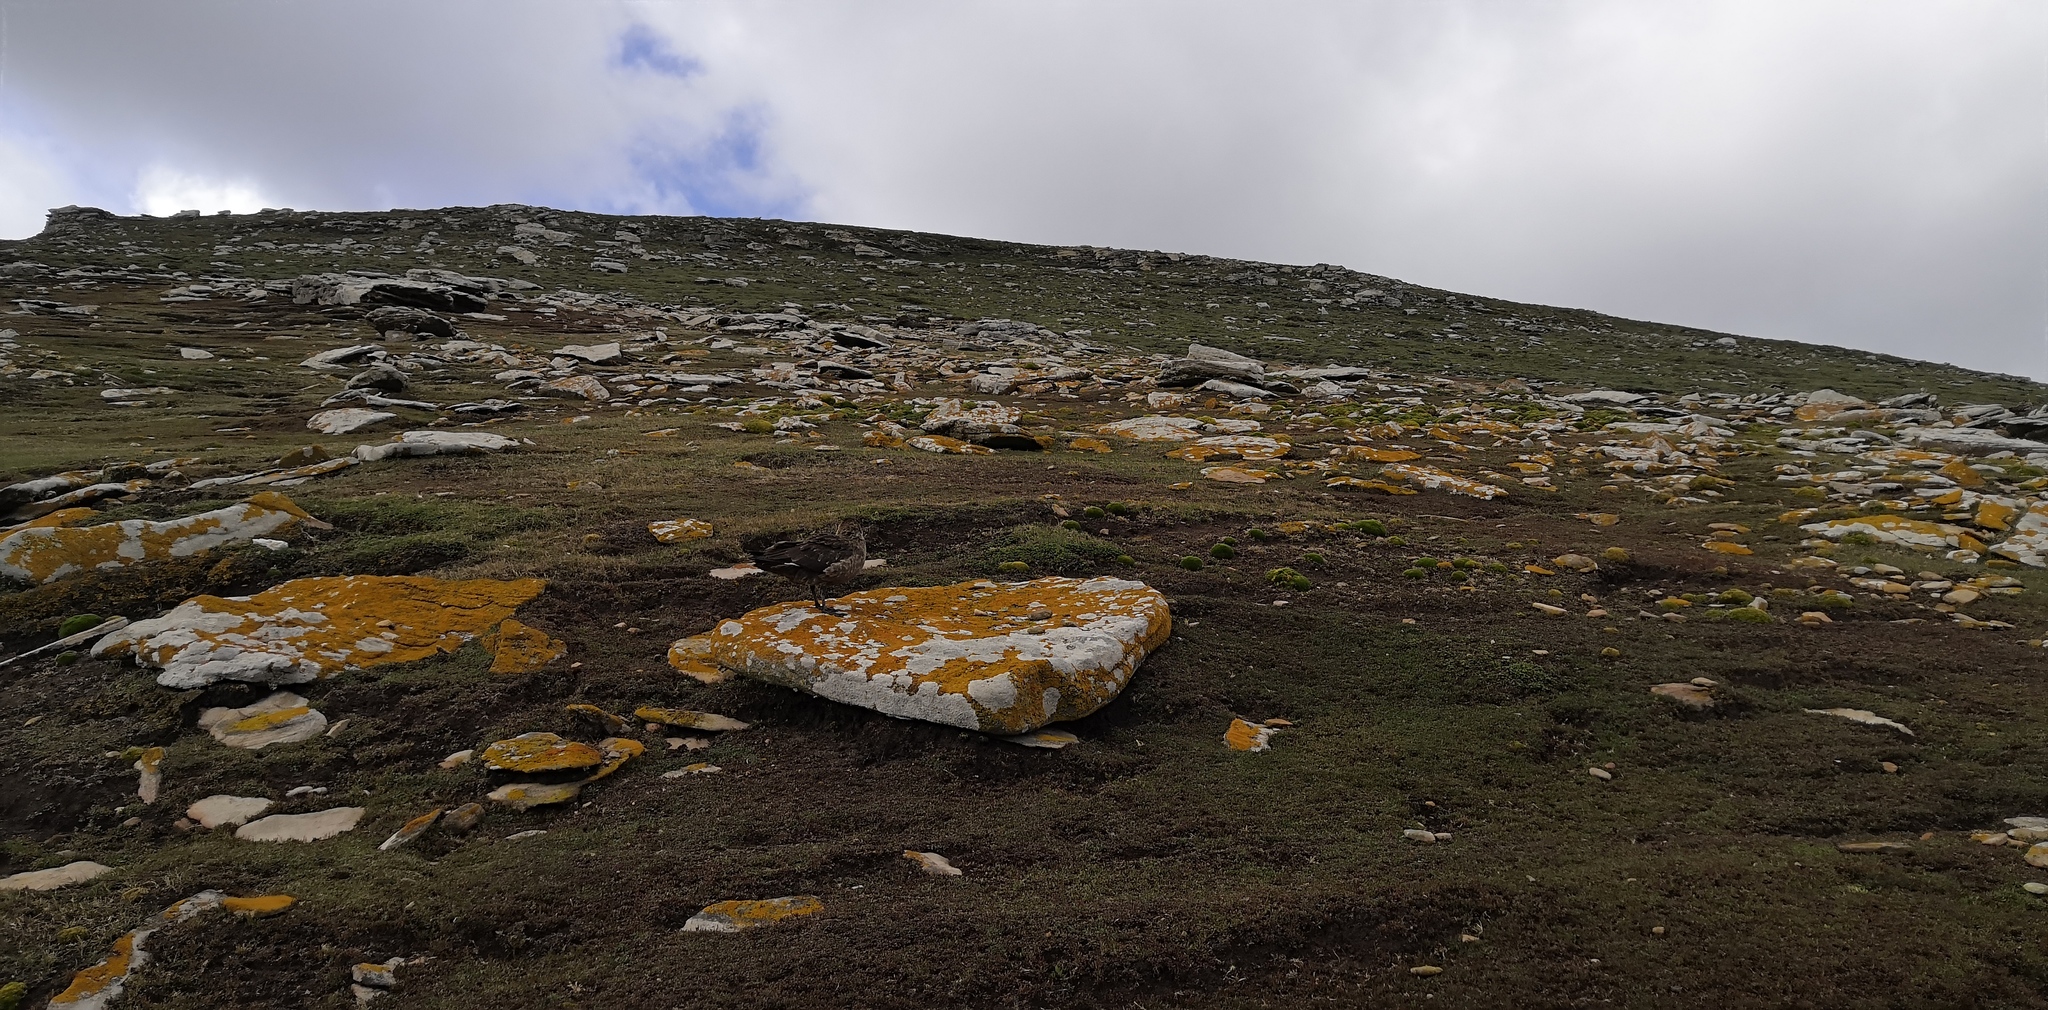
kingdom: Animalia
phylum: Chordata
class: Aves
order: Charadriiformes
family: Stercorariidae
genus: Stercorarius
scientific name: Stercorarius antarcticus
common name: Brown skua
